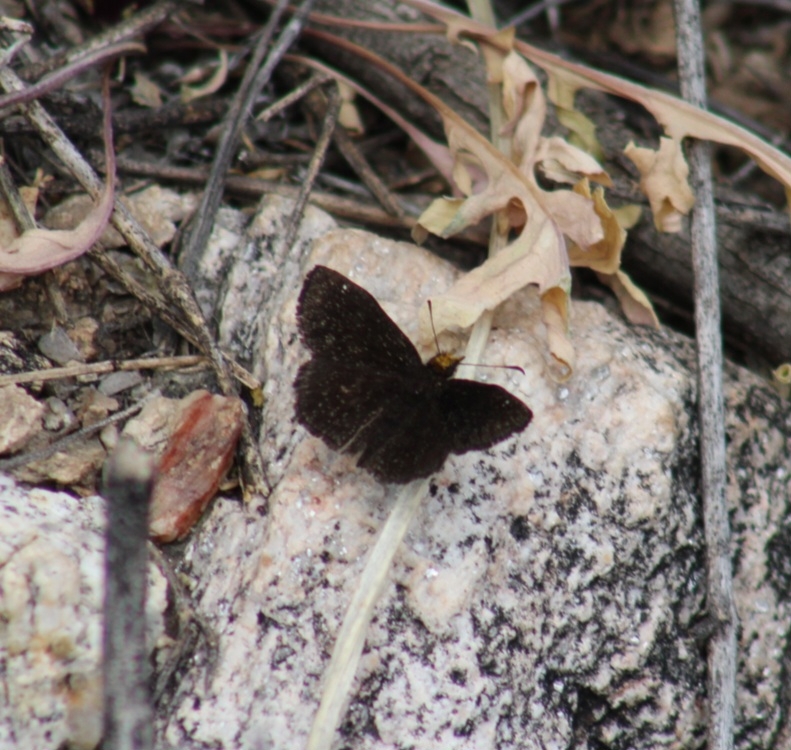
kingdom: Animalia
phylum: Arthropoda
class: Insecta
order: Lepidoptera
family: Hesperiidae
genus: Staphylus
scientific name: Staphylus ceos
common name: Golden-headed scallopwing
